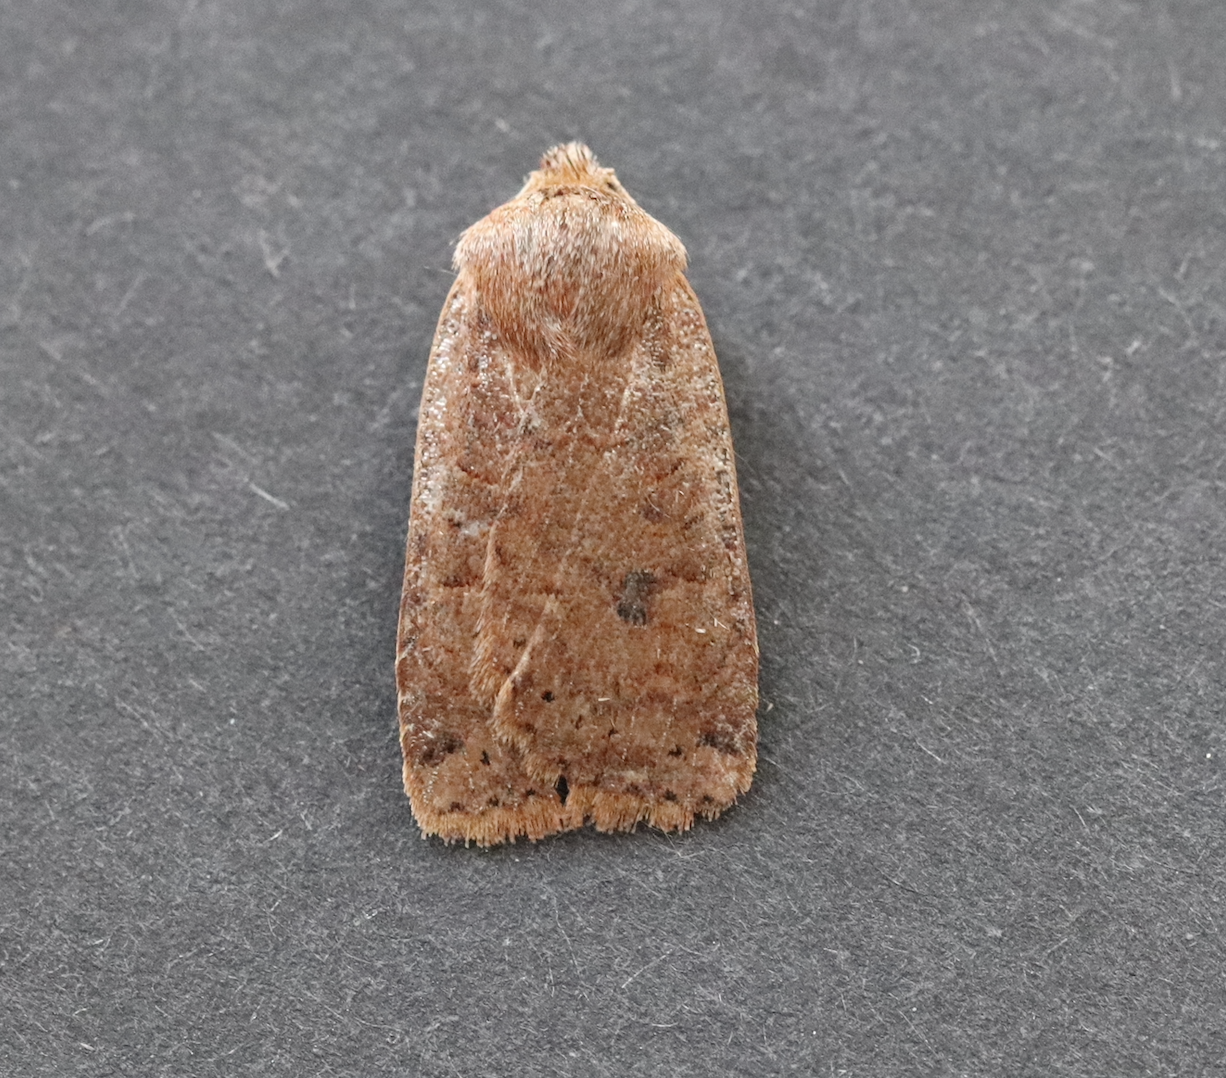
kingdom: Animalia
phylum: Arthropoda
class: Insecta
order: Lepidoptera
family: Noctuidae
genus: Conistra
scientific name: Conistra vaccinii
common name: Chestnut
